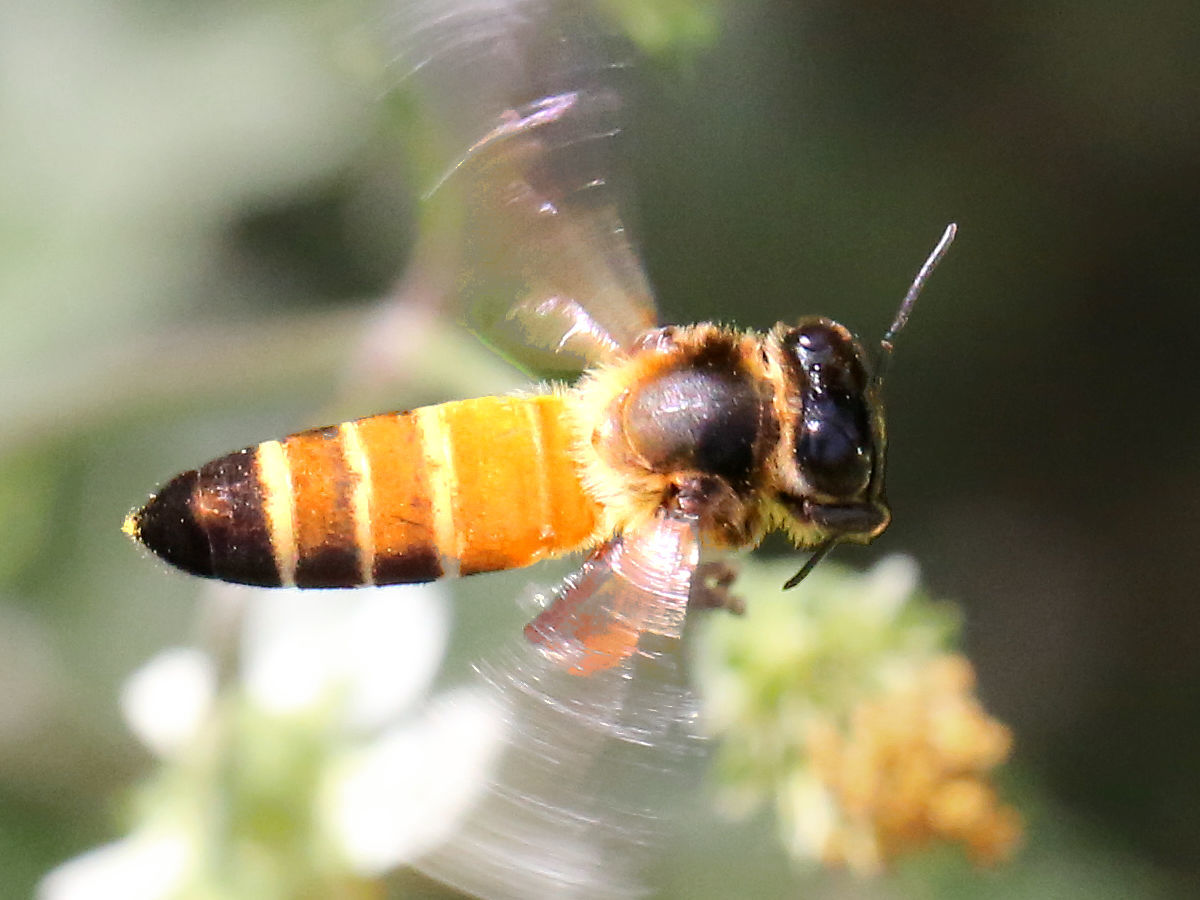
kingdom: Animalia
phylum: Arthropoda
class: Insecta
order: Hymenoptera
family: Apidae
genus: Apis
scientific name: Apis dorsata
